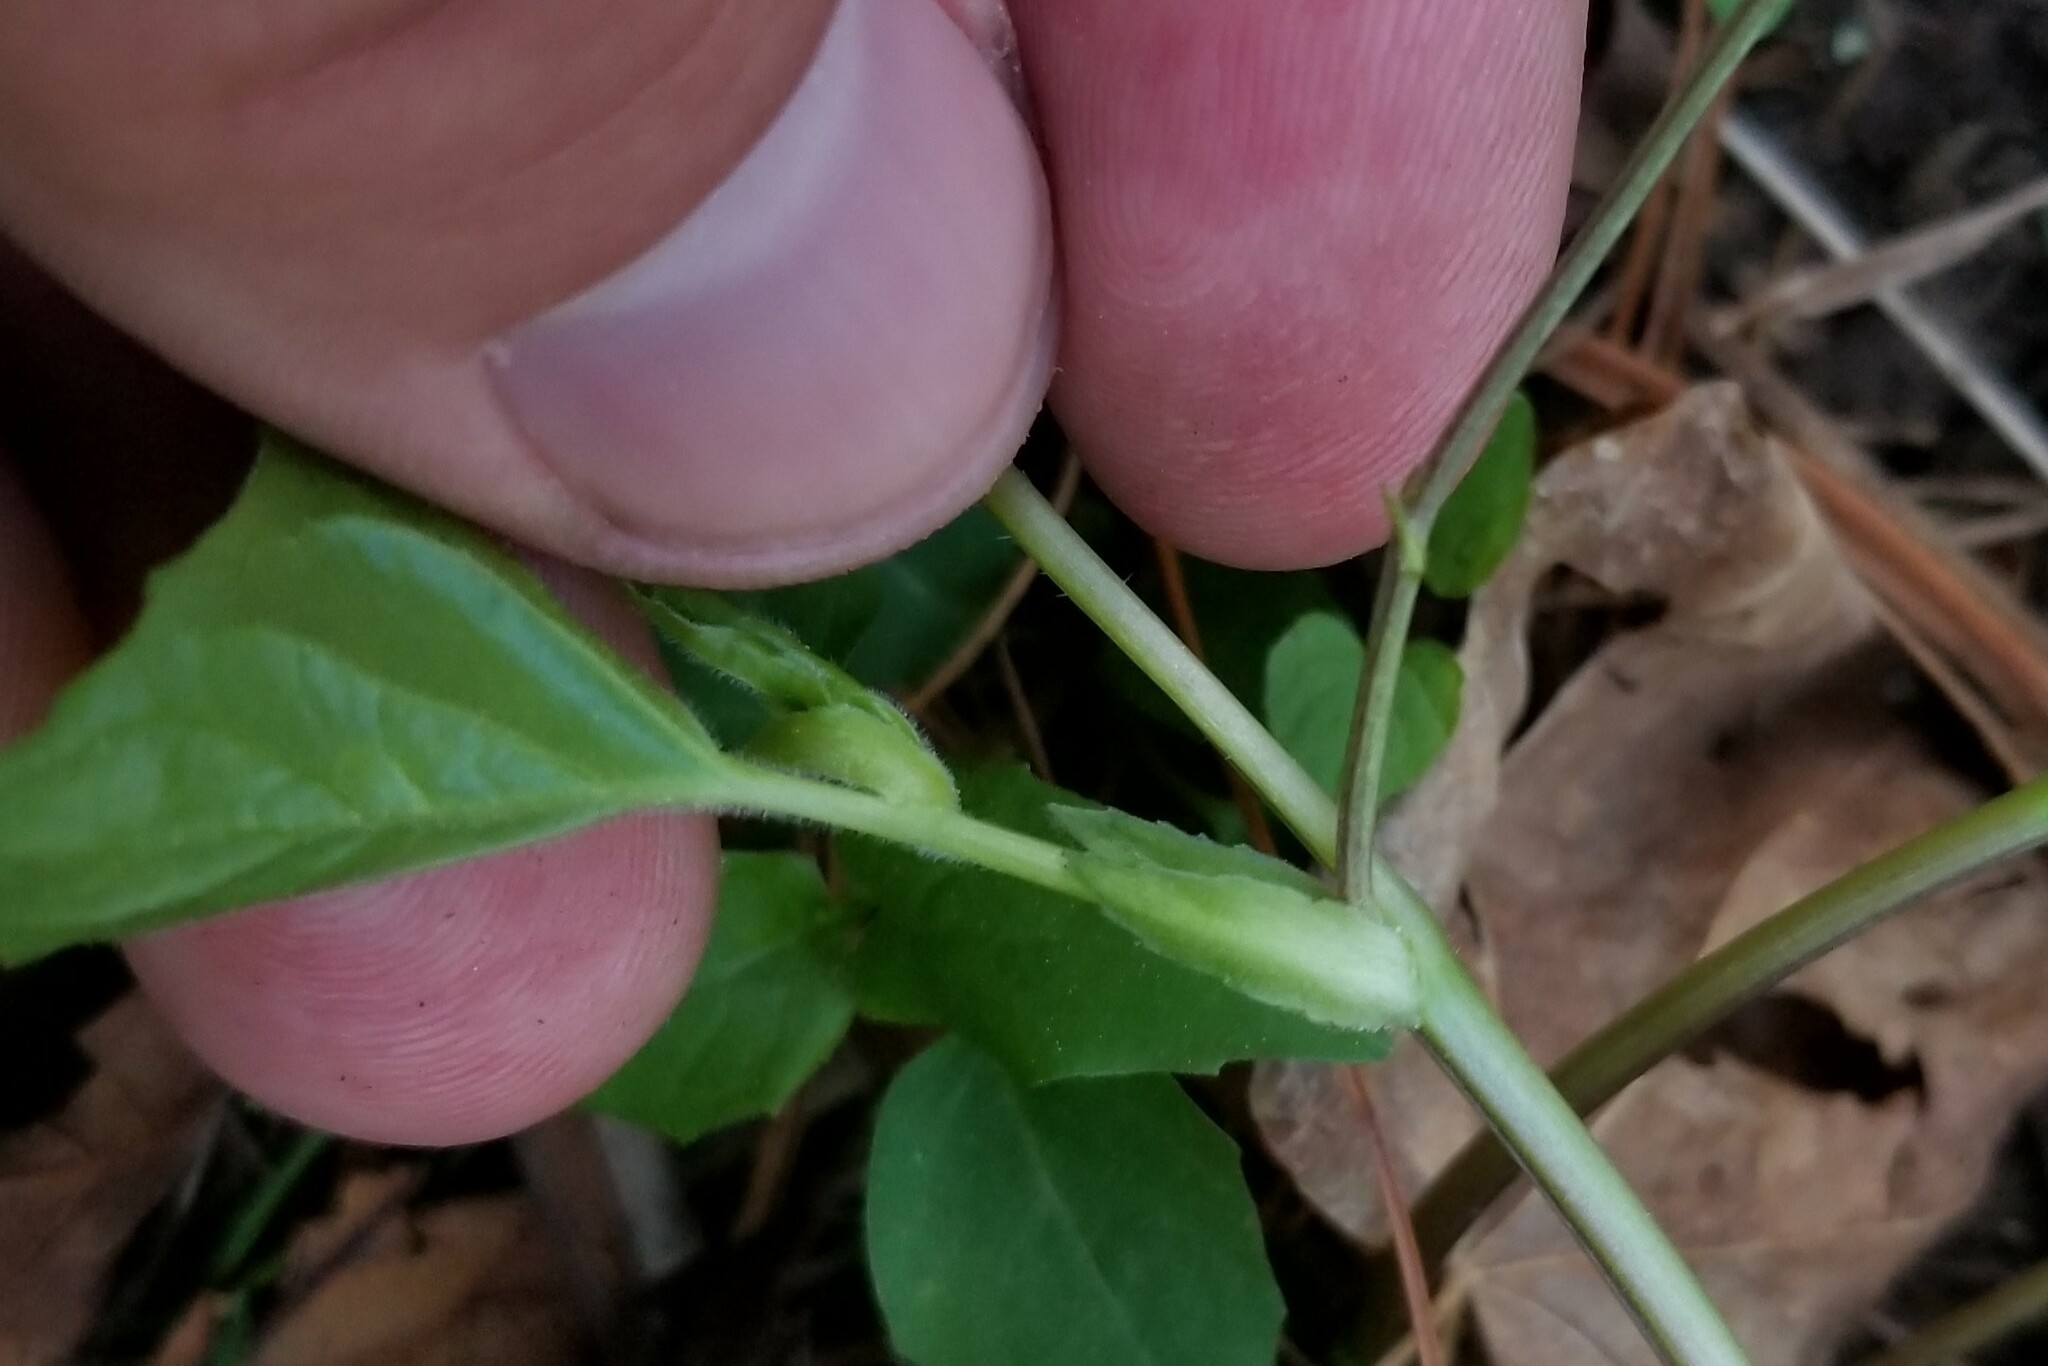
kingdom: Plantae
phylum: Tracheophyta
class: Magnoliopsida
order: Malpighiales
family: Violaceae
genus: Viola
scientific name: Viola eriocarpa
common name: Smooth yellow violet
